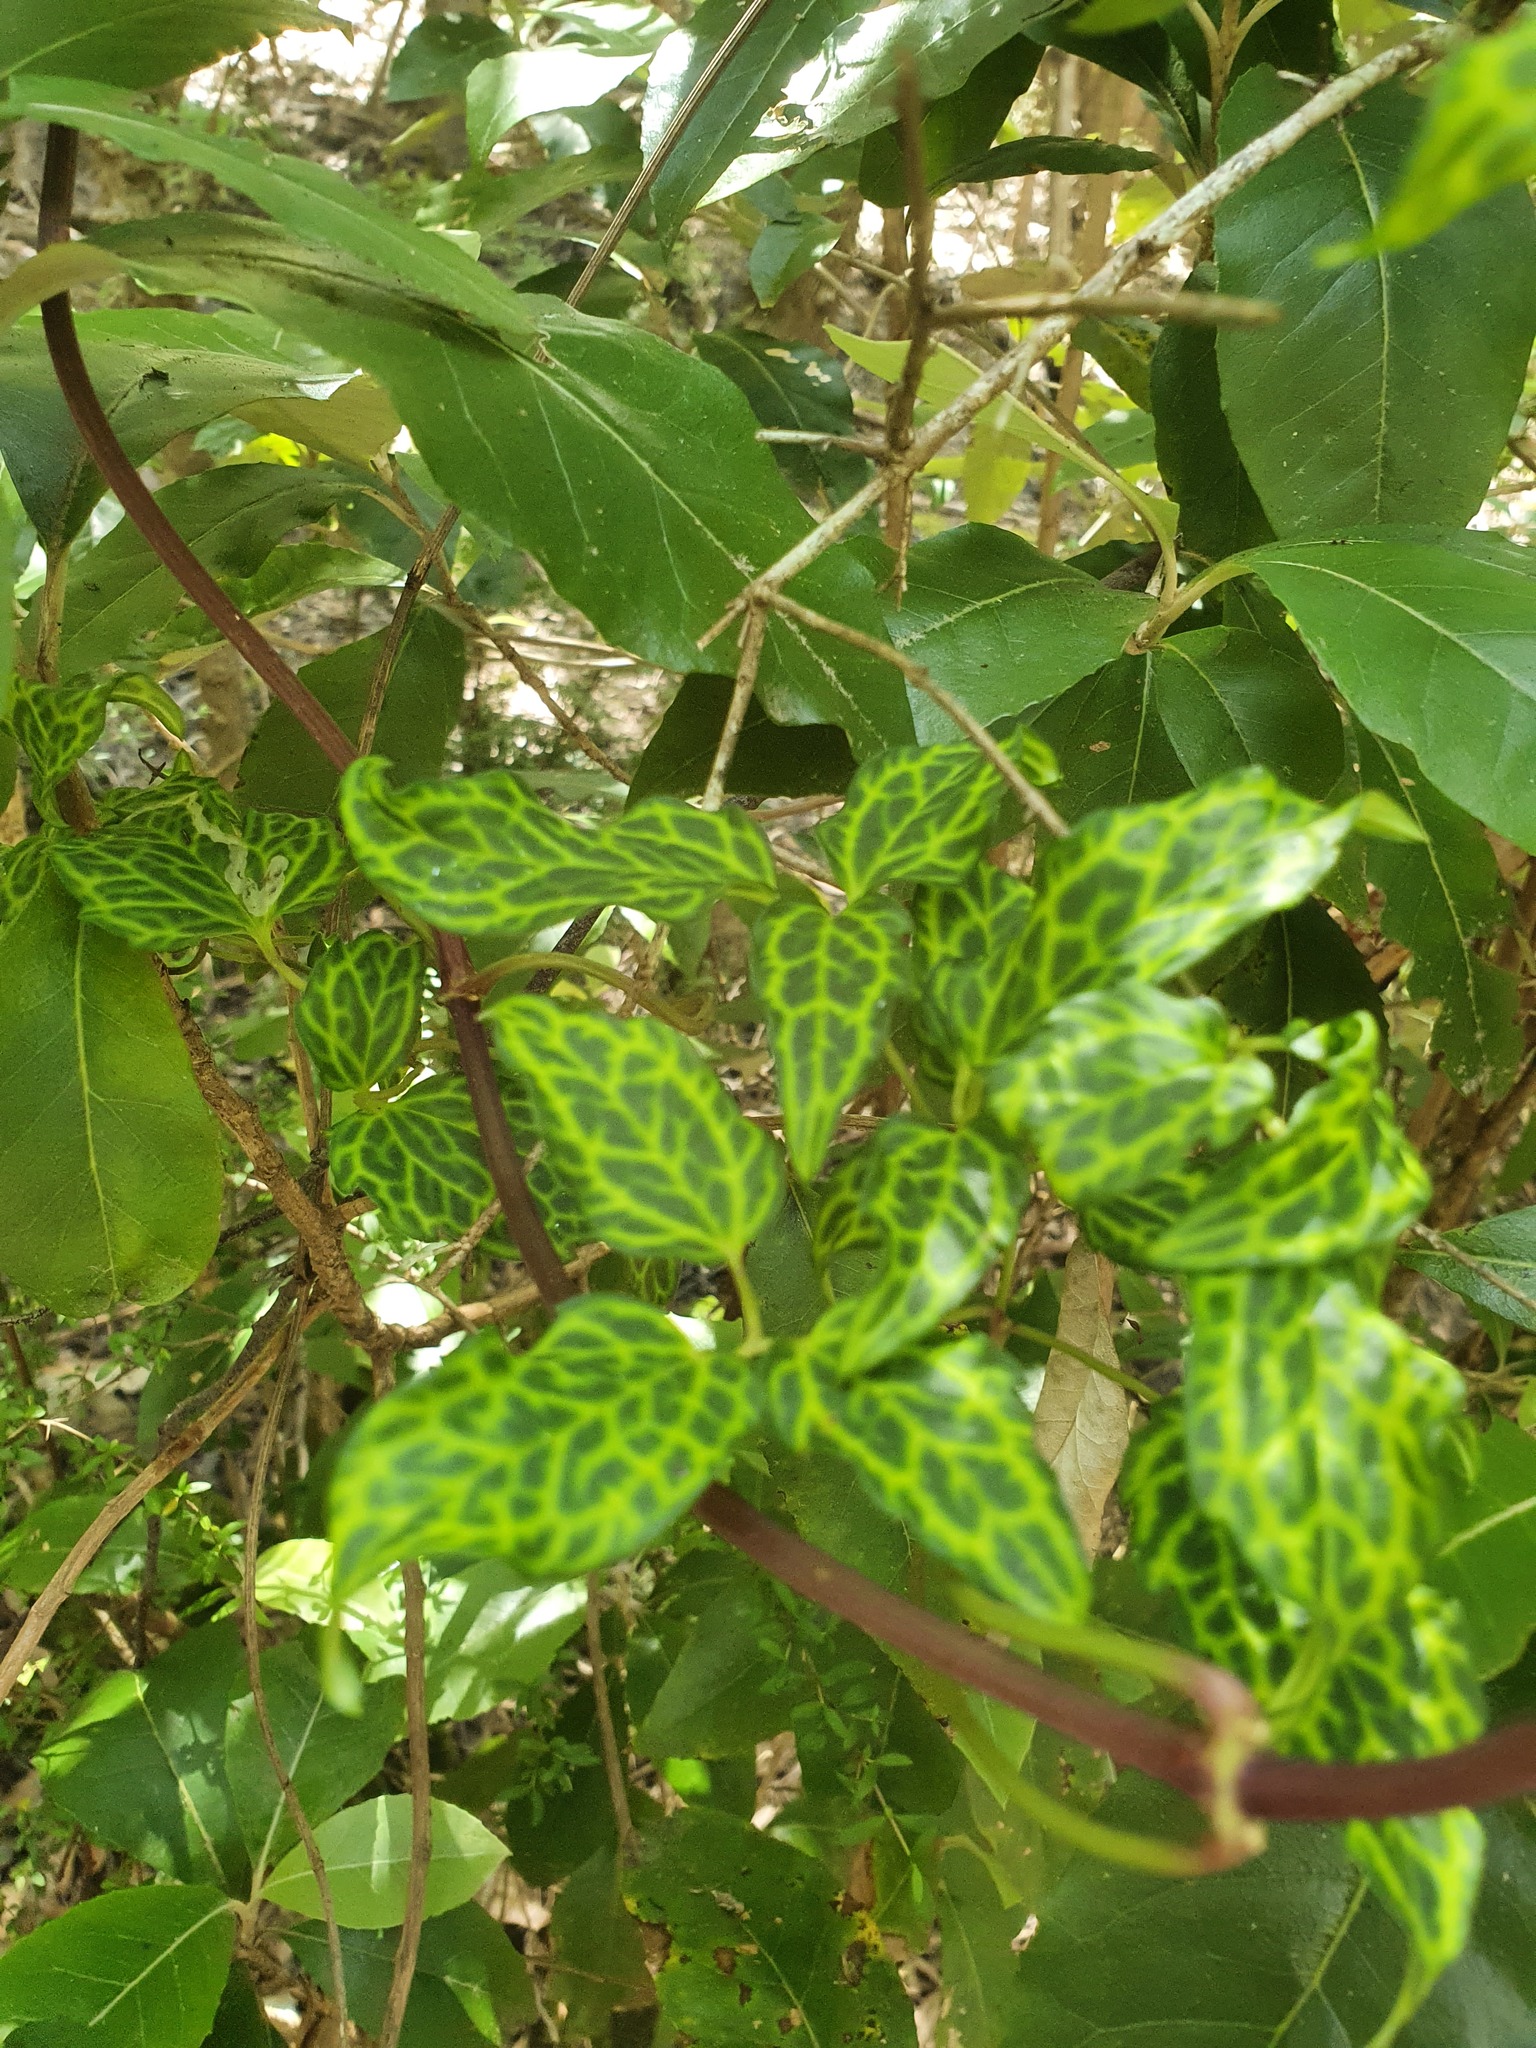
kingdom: Plantae
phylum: Tracheophyta
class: Magnoliopsida
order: Ranunculales
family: Ranunculaceae
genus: Clematis
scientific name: Clematis aristata
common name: Mountain clematis
